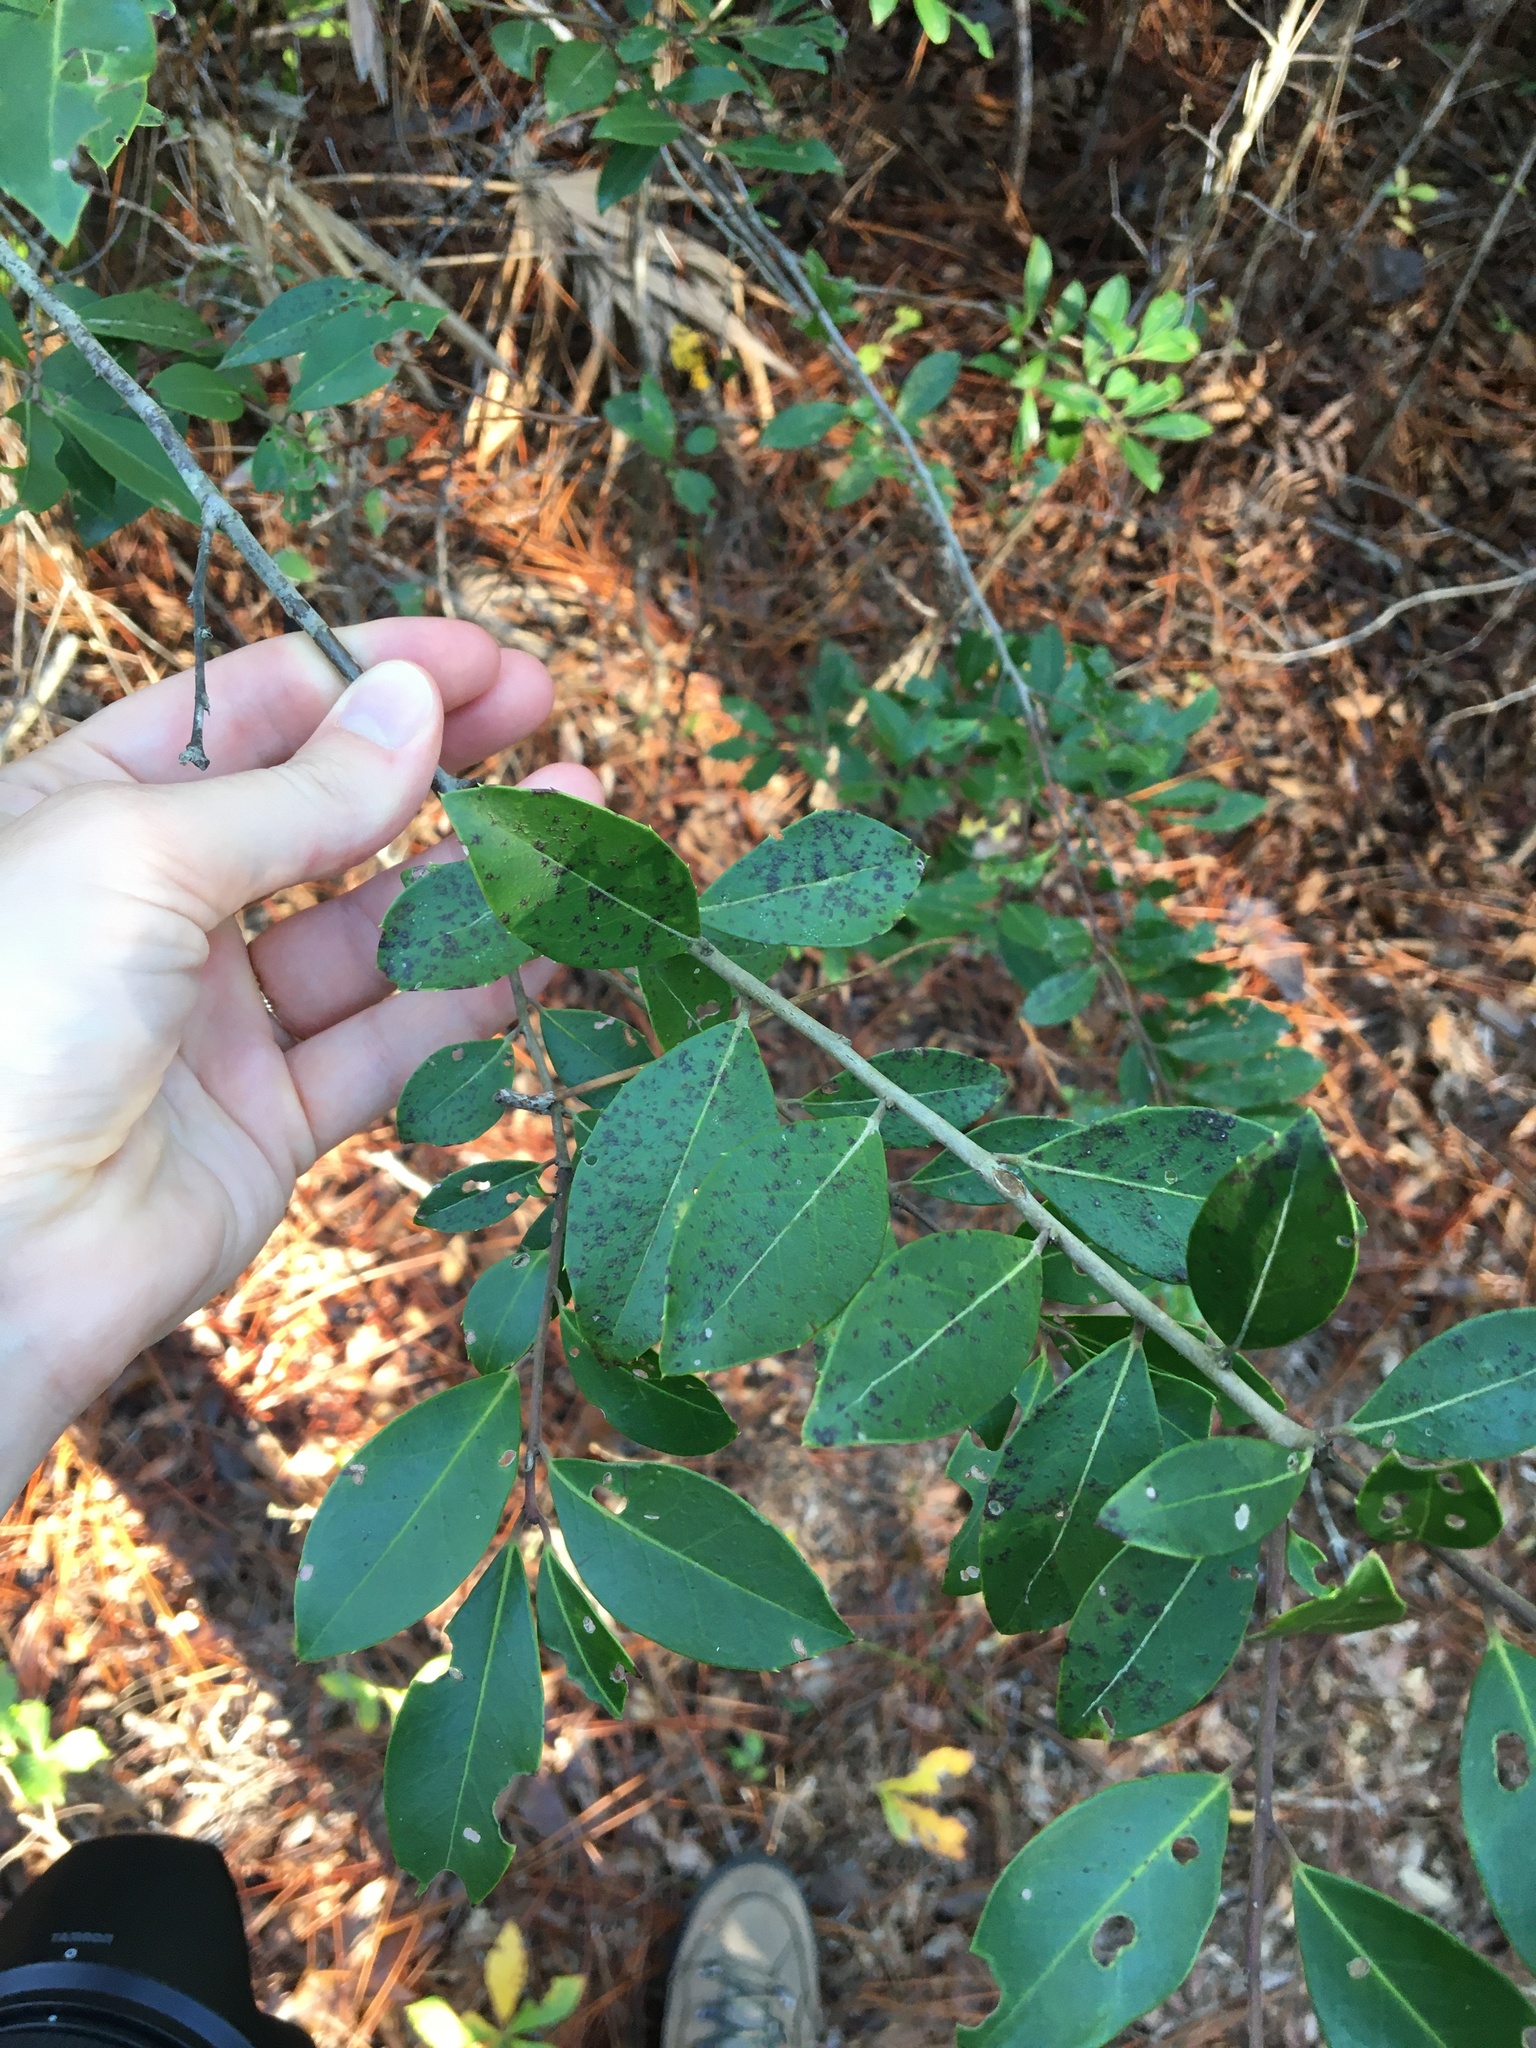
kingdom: Plantae
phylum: Tracheophyta
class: Magnoliopsida
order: Aquifoliales
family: Aquifoliaceae
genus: Ilex
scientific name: Ilex coriacea
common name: Sweet gallberry
